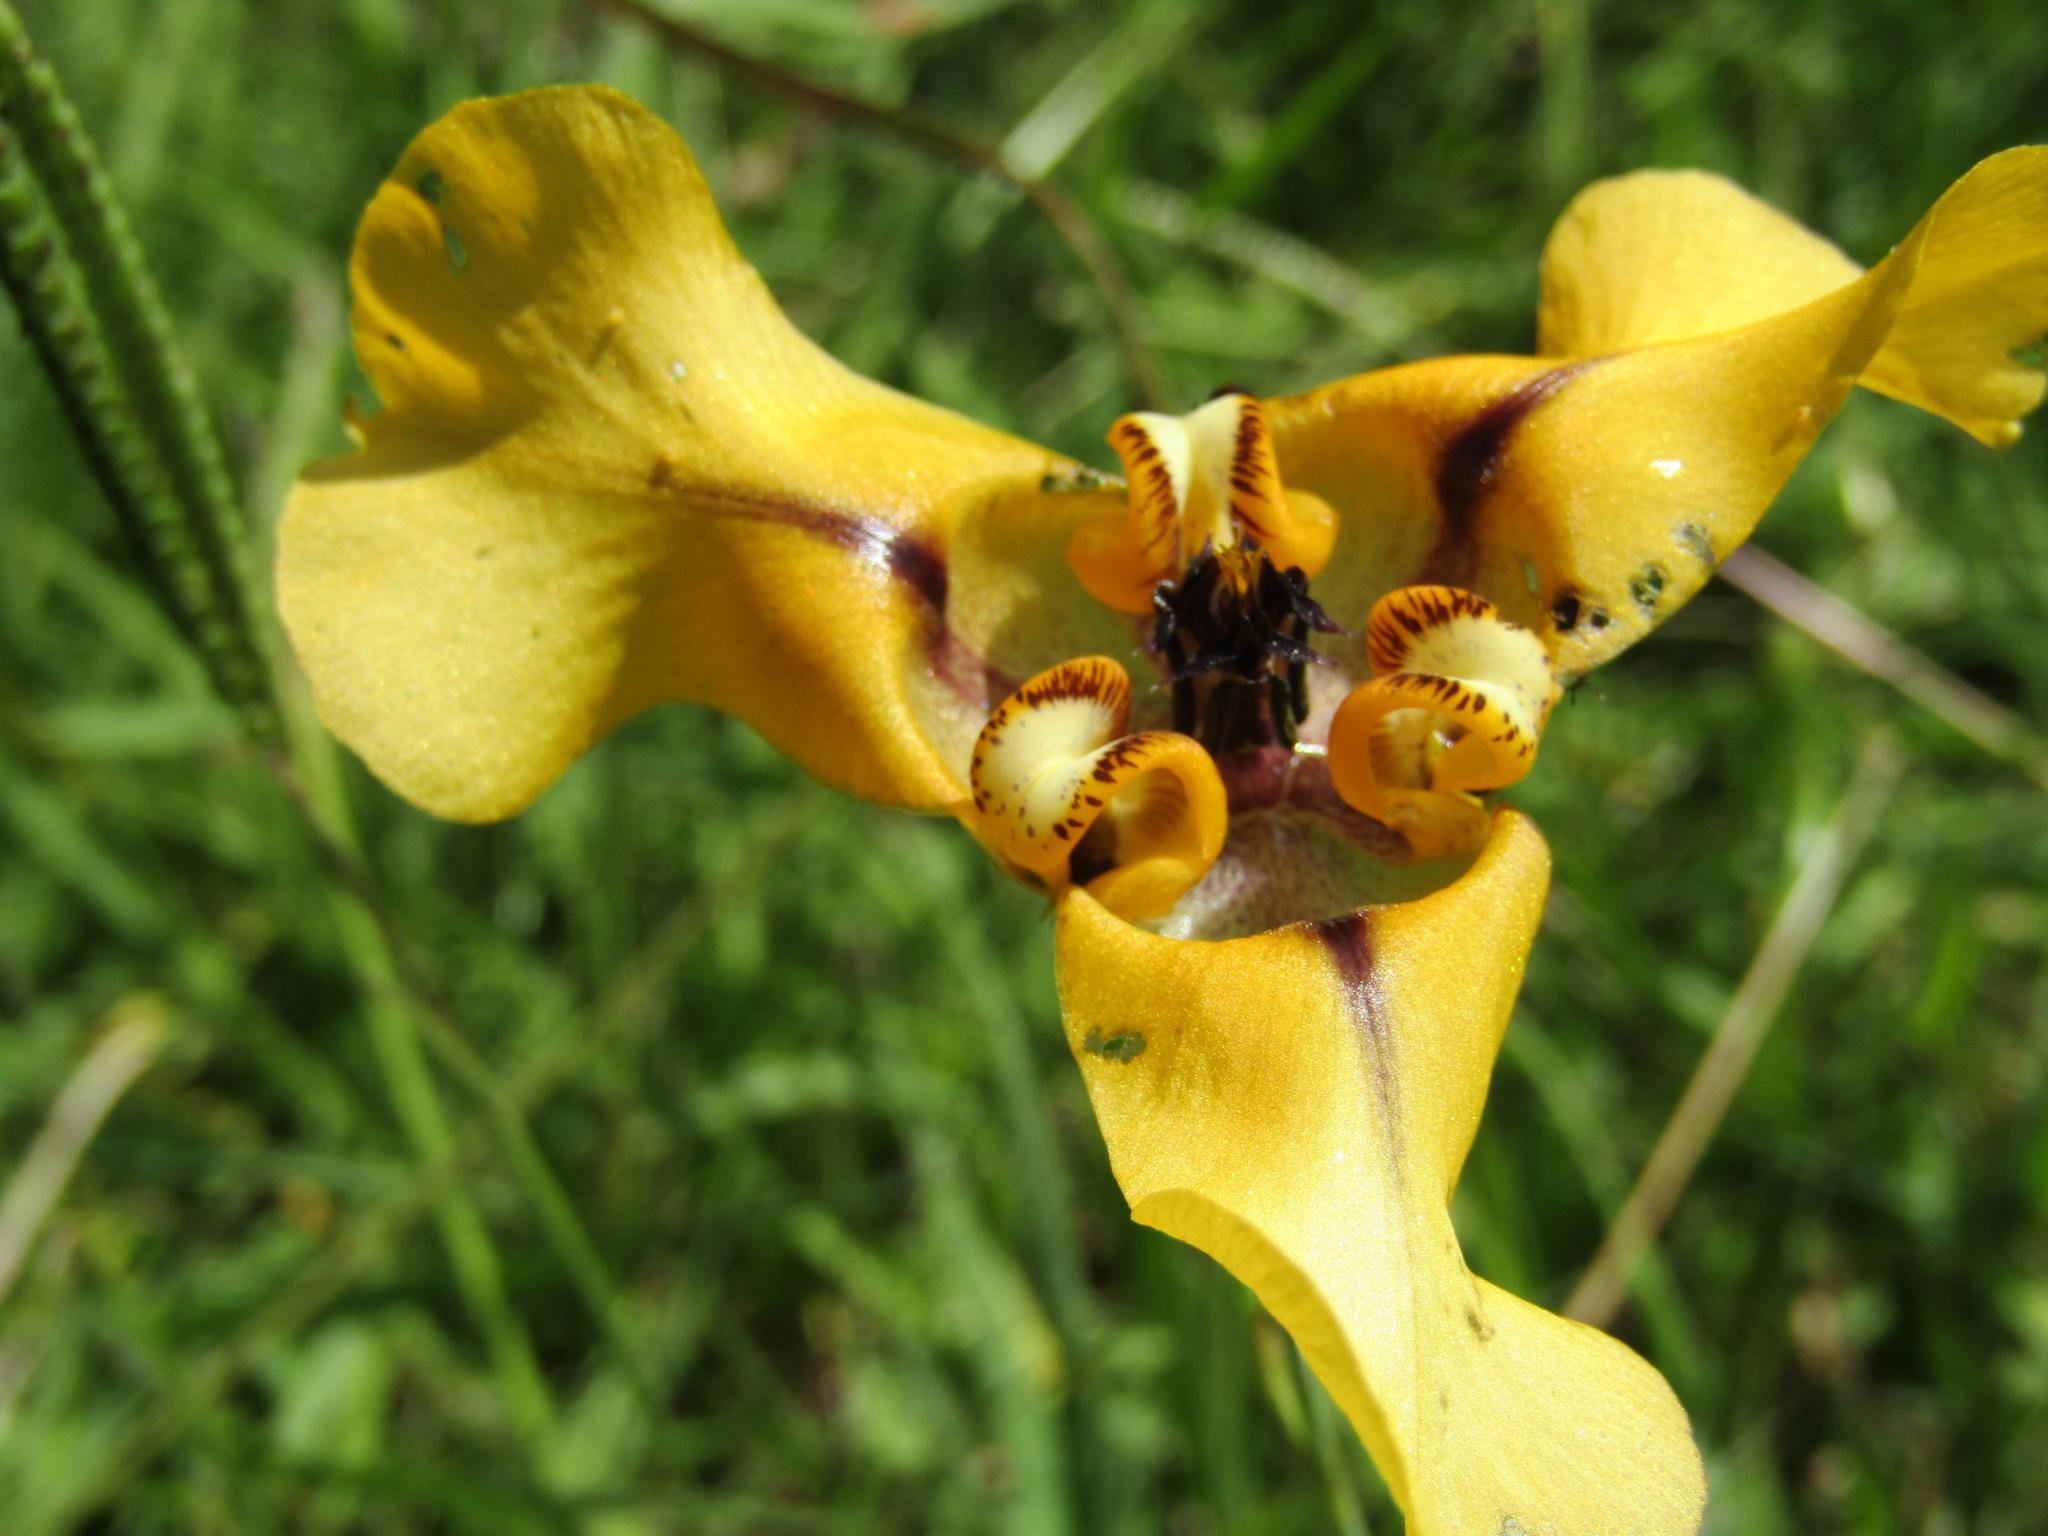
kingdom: Plantae
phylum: Tracheophyta
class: Liliopsida
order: Asparagales
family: Iridaceae
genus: Cypella
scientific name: Cypella herbertii
